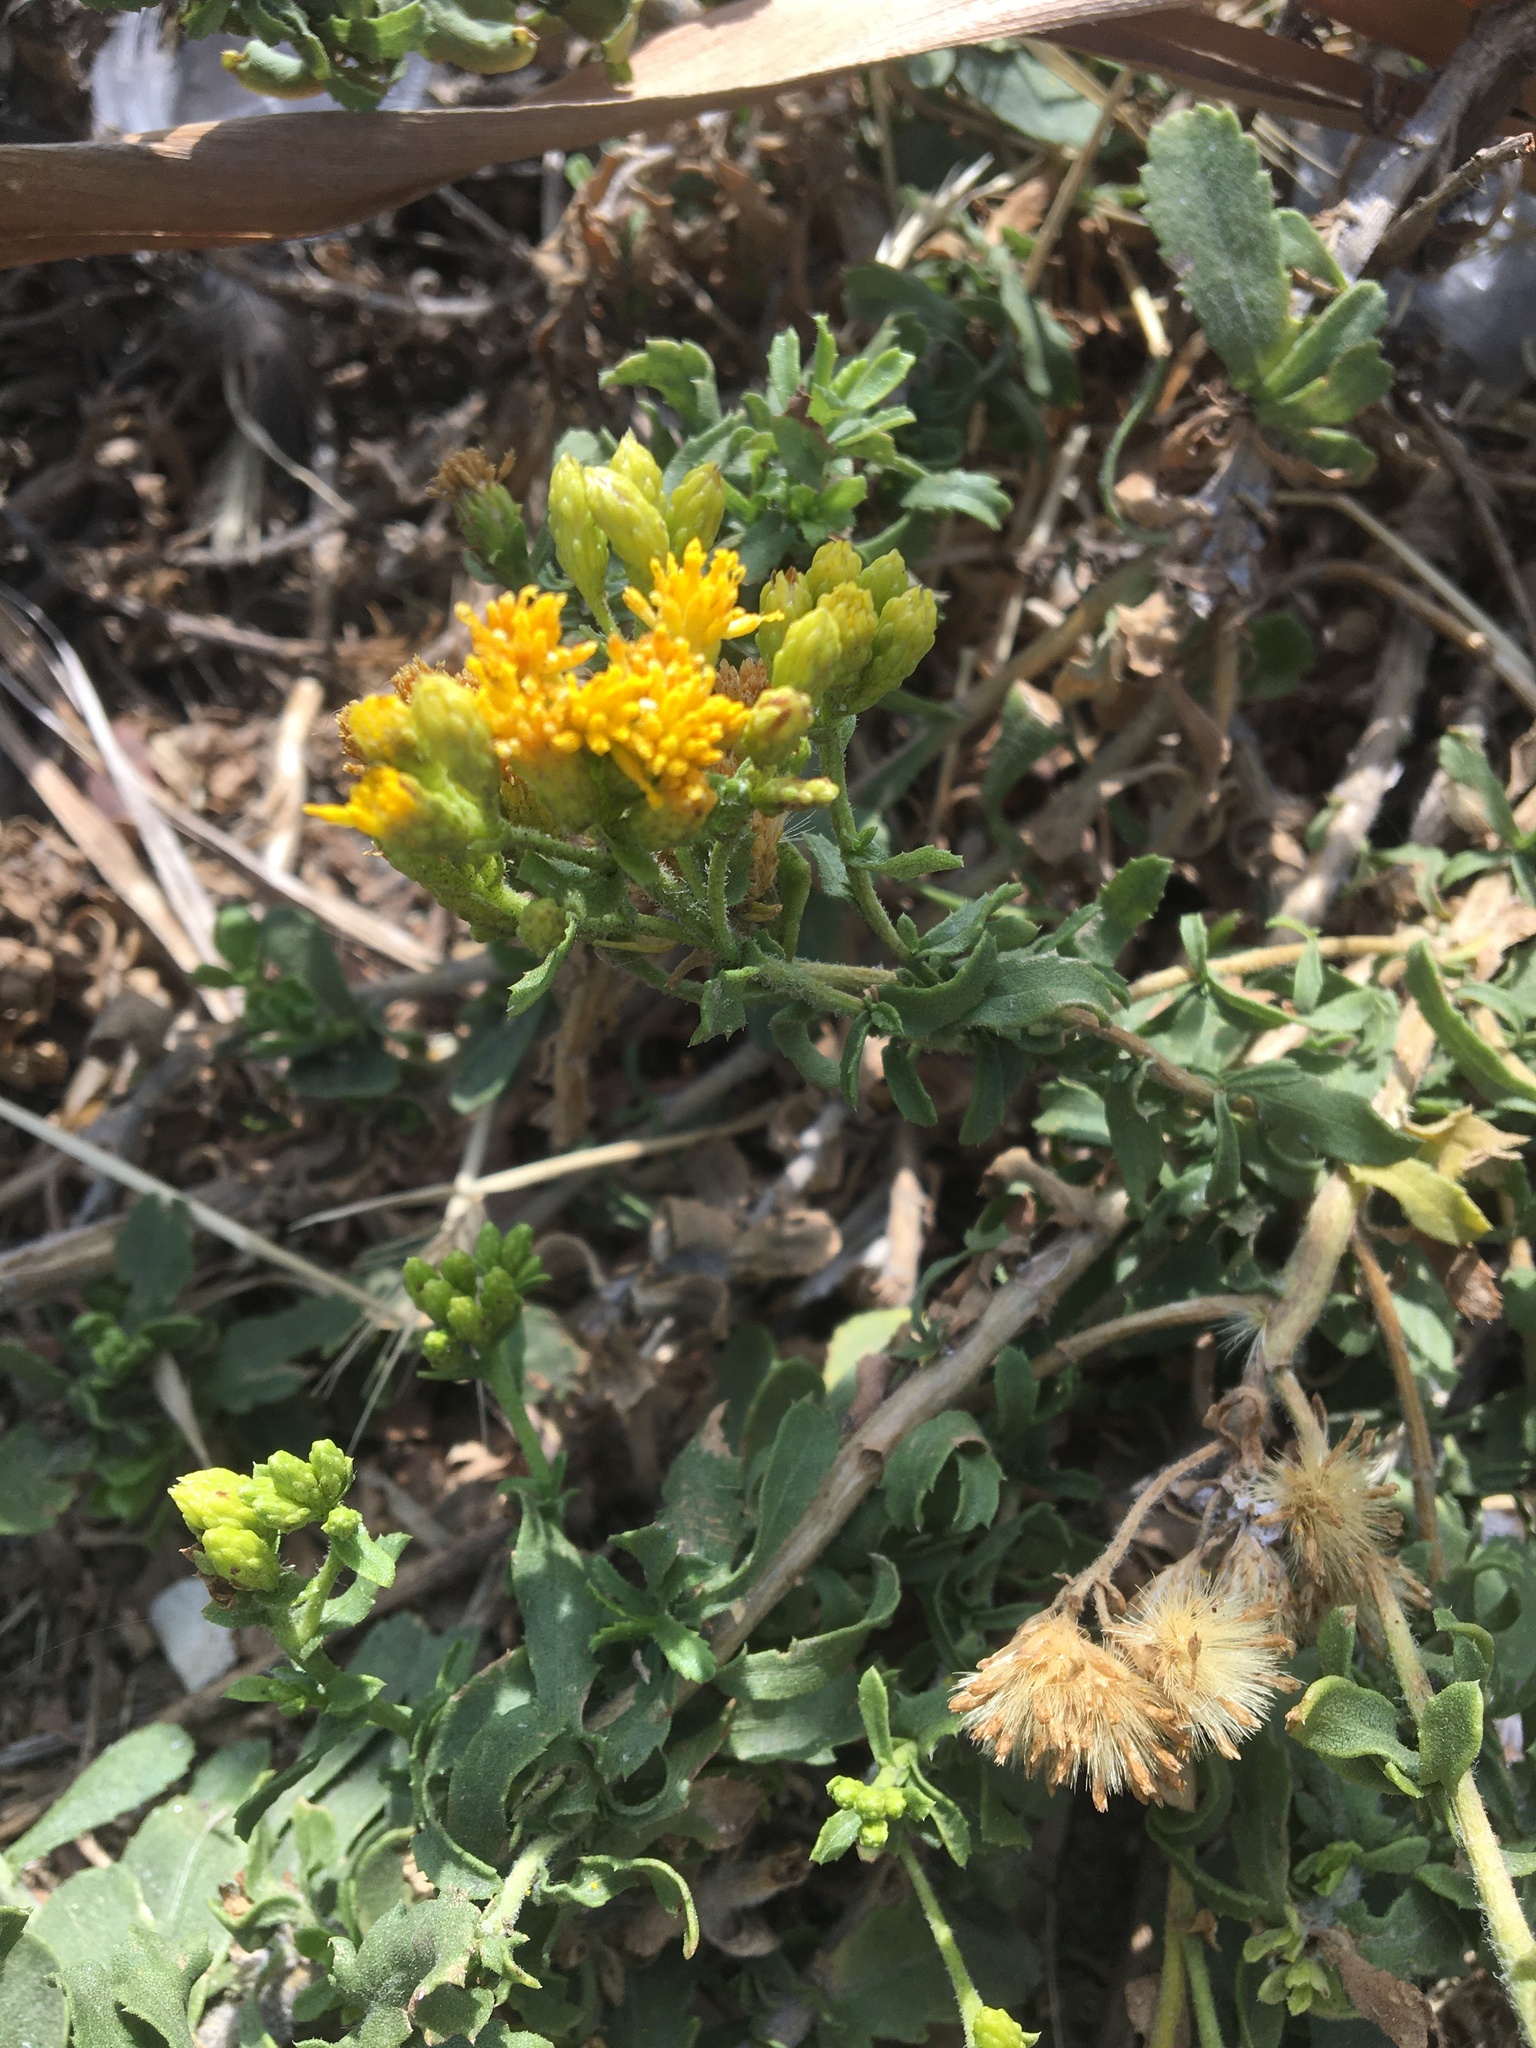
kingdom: Plantae
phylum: Tracheophyta
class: Magnoliopsida
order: Asterales
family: Asteraceae
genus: Isocoma
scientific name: Isocoma menziesii
